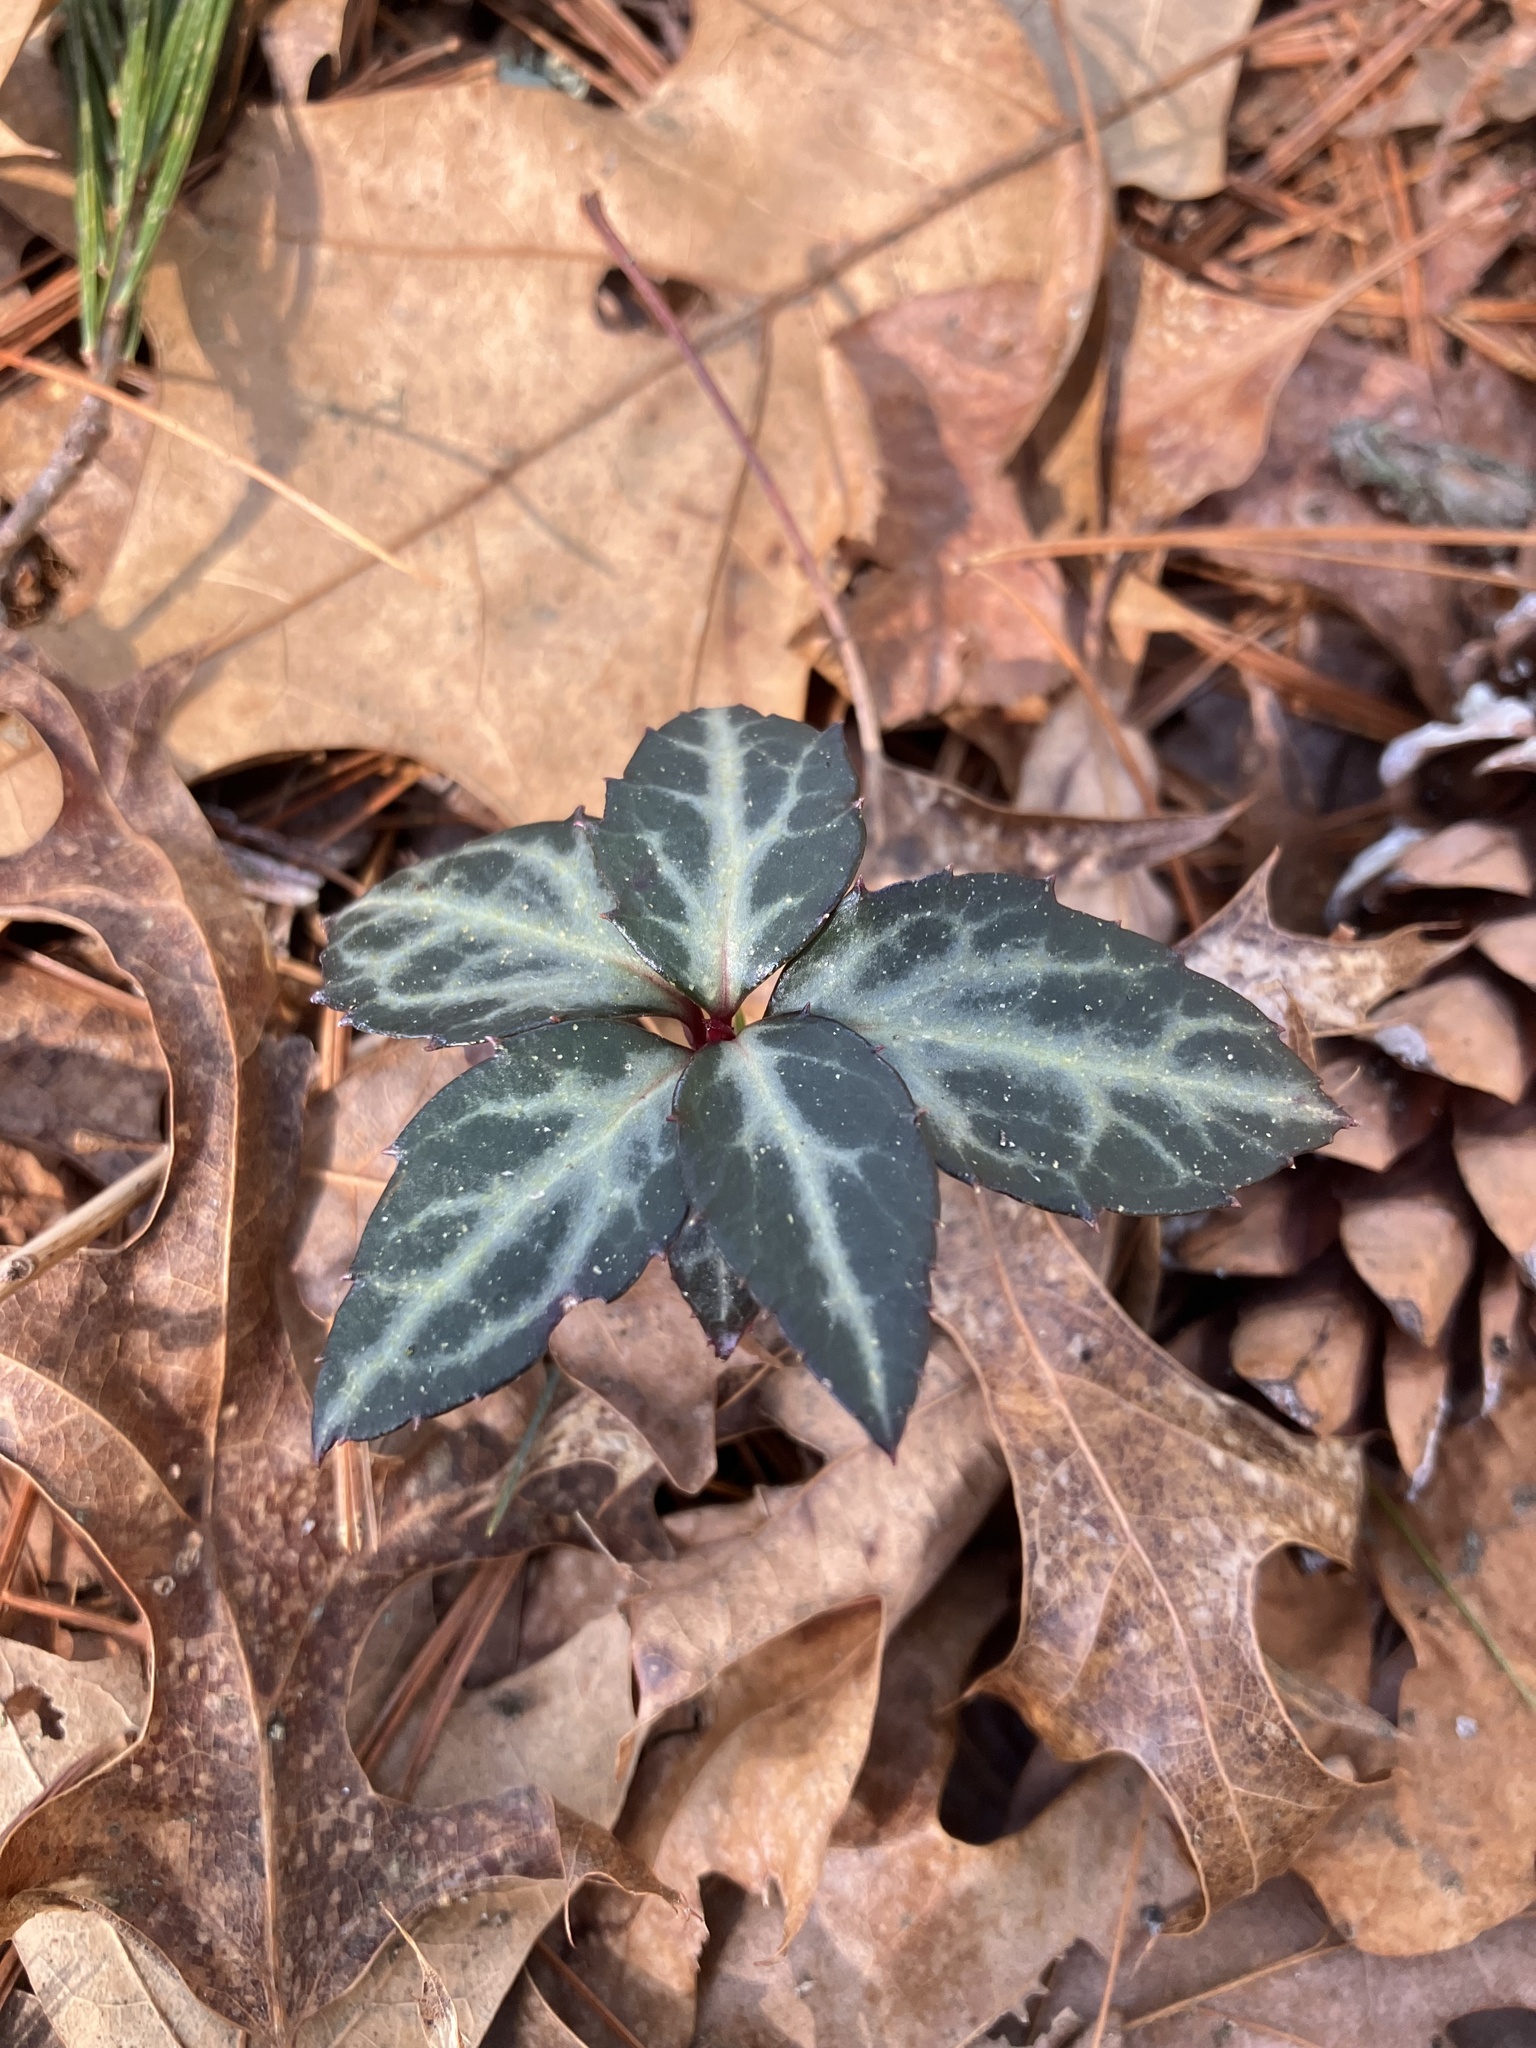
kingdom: Plantae
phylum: Tracheophyta
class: Magnoliopsida
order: Ericales
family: Ericaceae
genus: Chimaphila
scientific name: Chimaphila maculata
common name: Spotted pipsissewa
